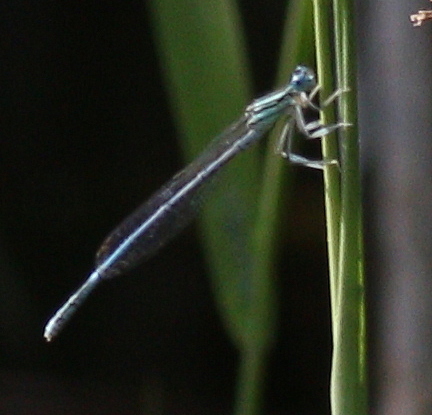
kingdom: Animalia
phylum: Arthropoda
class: Insecta
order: Odonata
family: Platycnemididae
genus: Platycnemis
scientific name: Platycnemis pennipes
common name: White-legged damselfly
